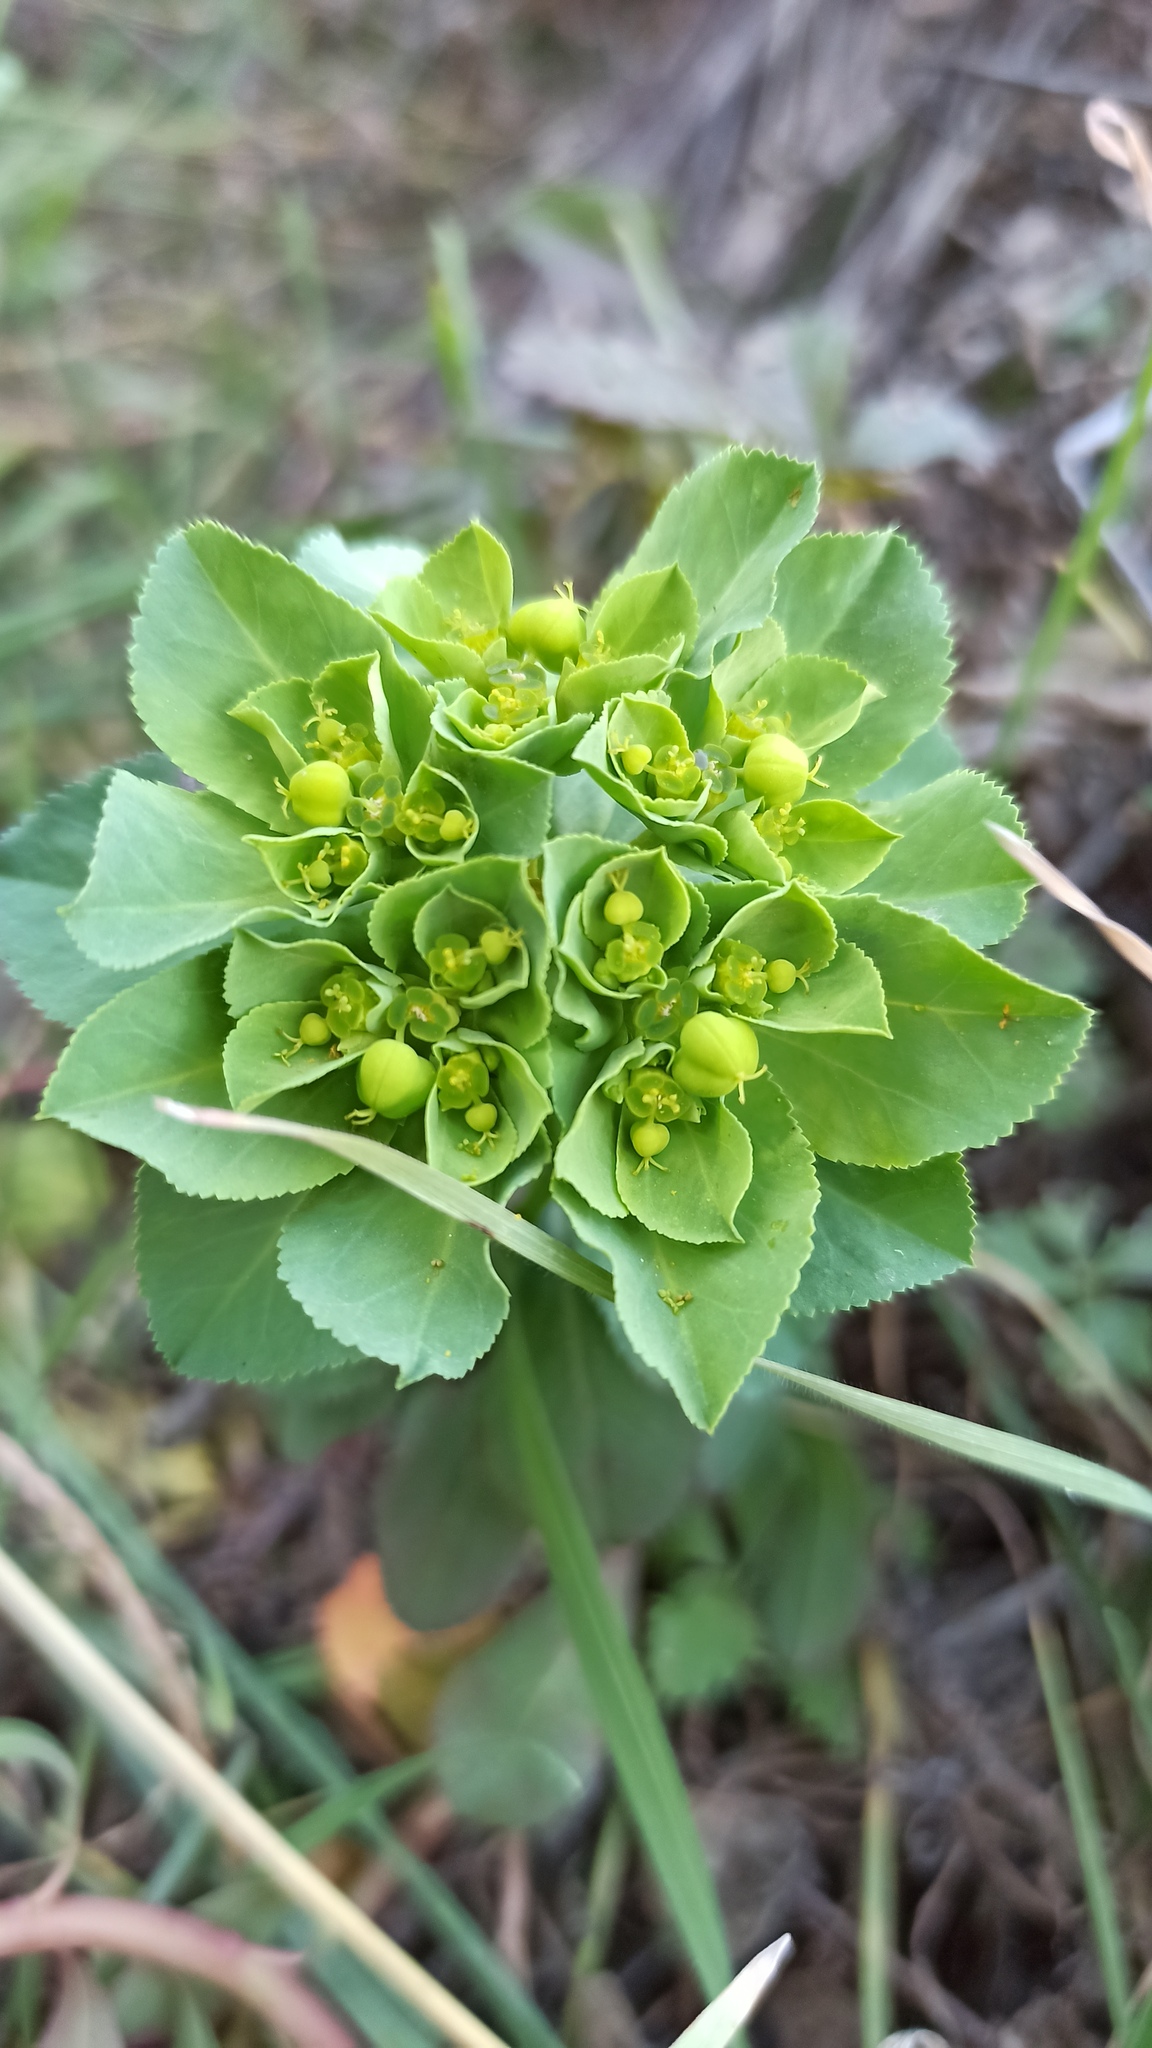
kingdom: Plantae
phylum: Tracheophyta
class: Magnoliopsida
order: Malpighiales
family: Euphorbiaceae
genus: Euphorbia
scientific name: Euphorbia helioscopia
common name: Sun spurge
